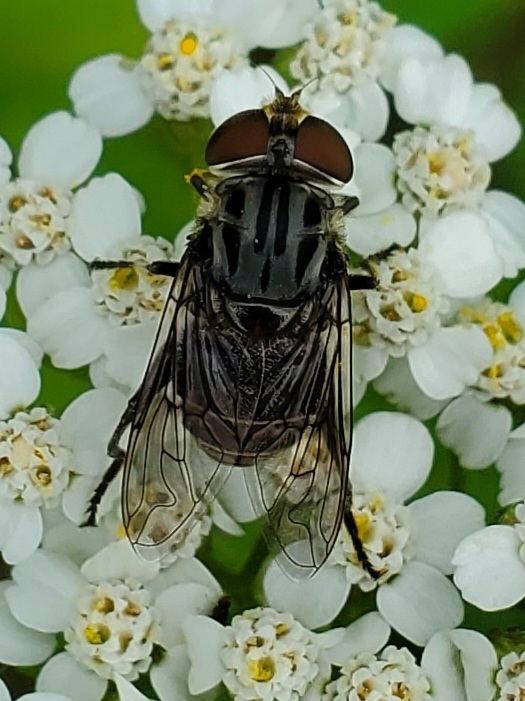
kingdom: Animalia
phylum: Arthropoda
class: Insecta
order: Diptera
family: Syrphidae
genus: Palpada
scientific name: Palpada furcata
